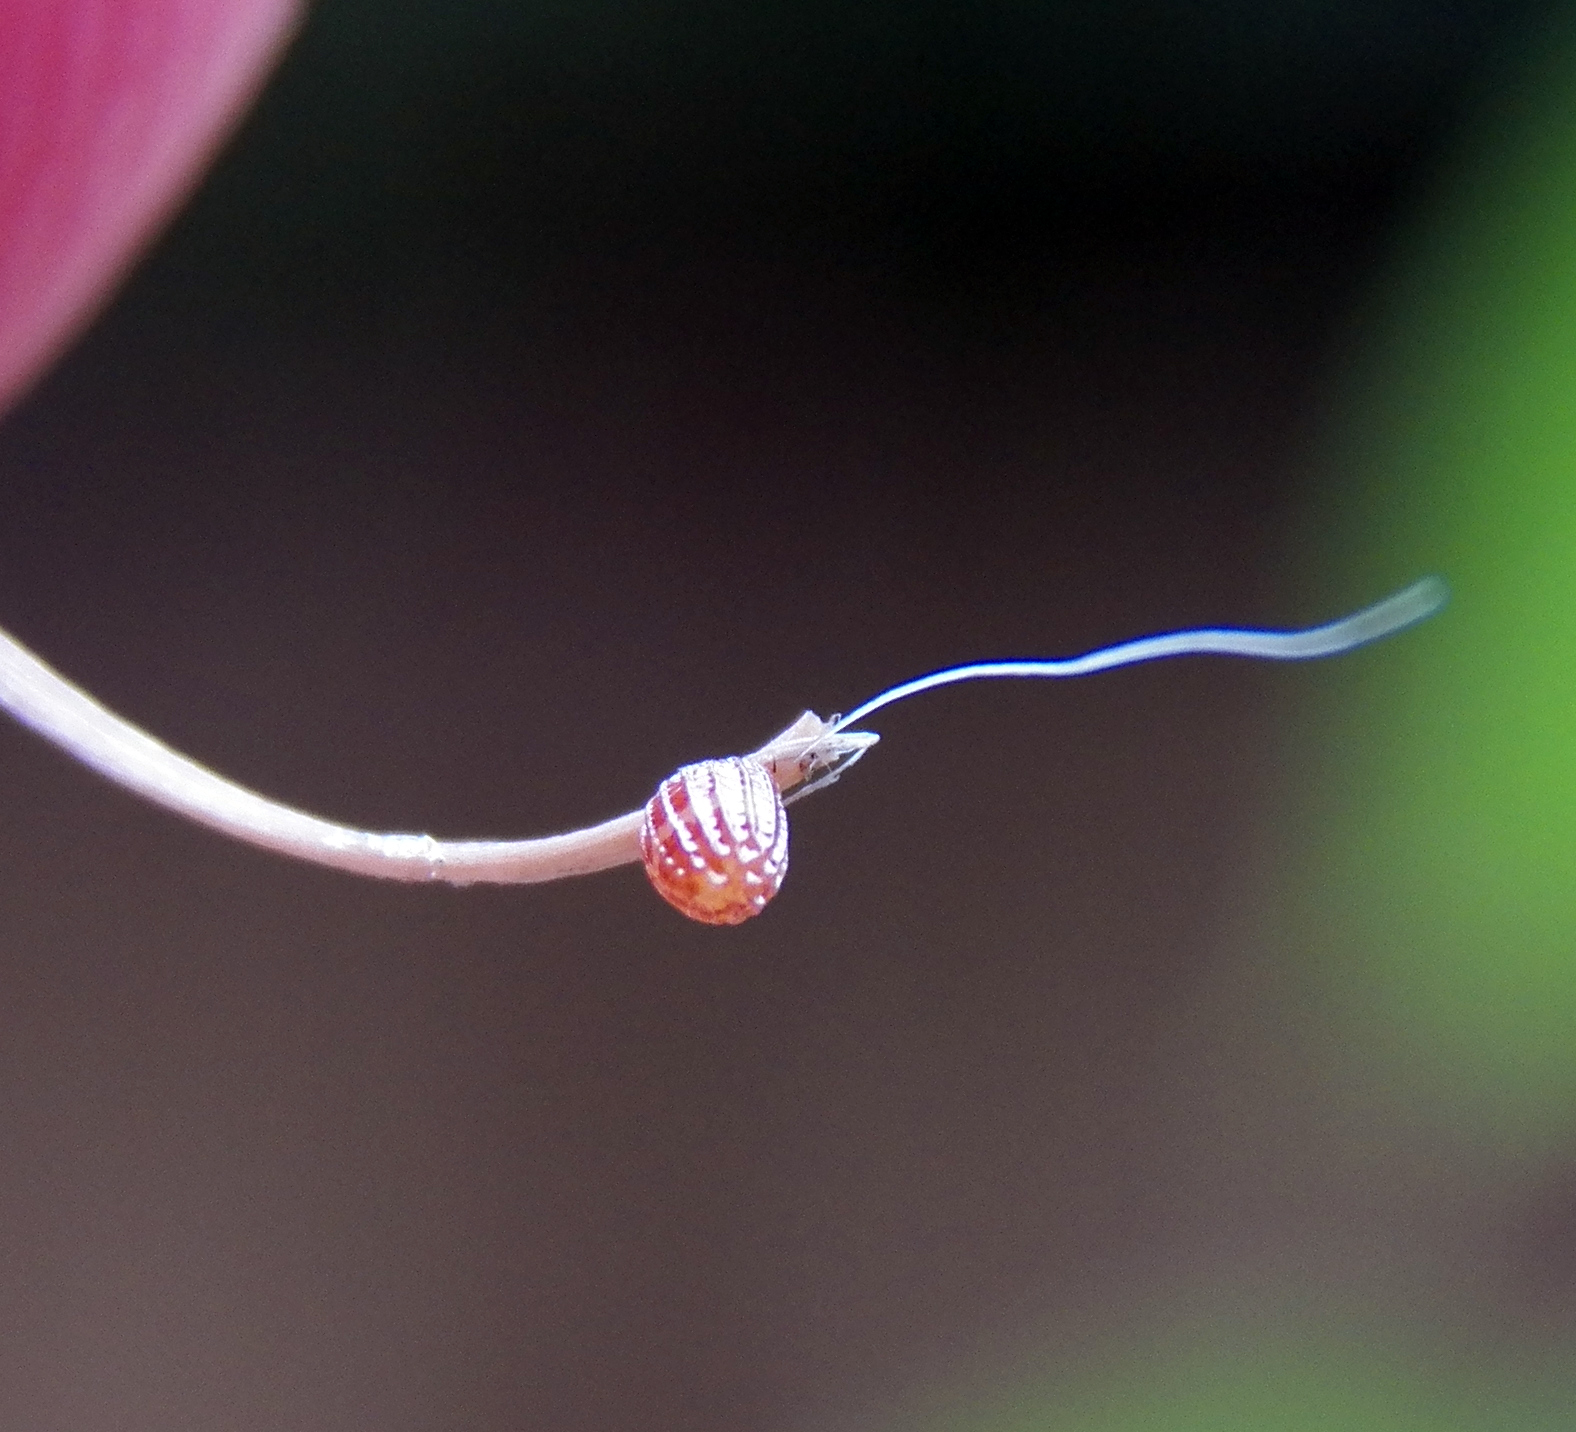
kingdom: Animalia
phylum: Arthropoda
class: Insecta
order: Lepidoptera
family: Nymphalidae
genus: Dione
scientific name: Dione vanillae
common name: Gulf fritillary
